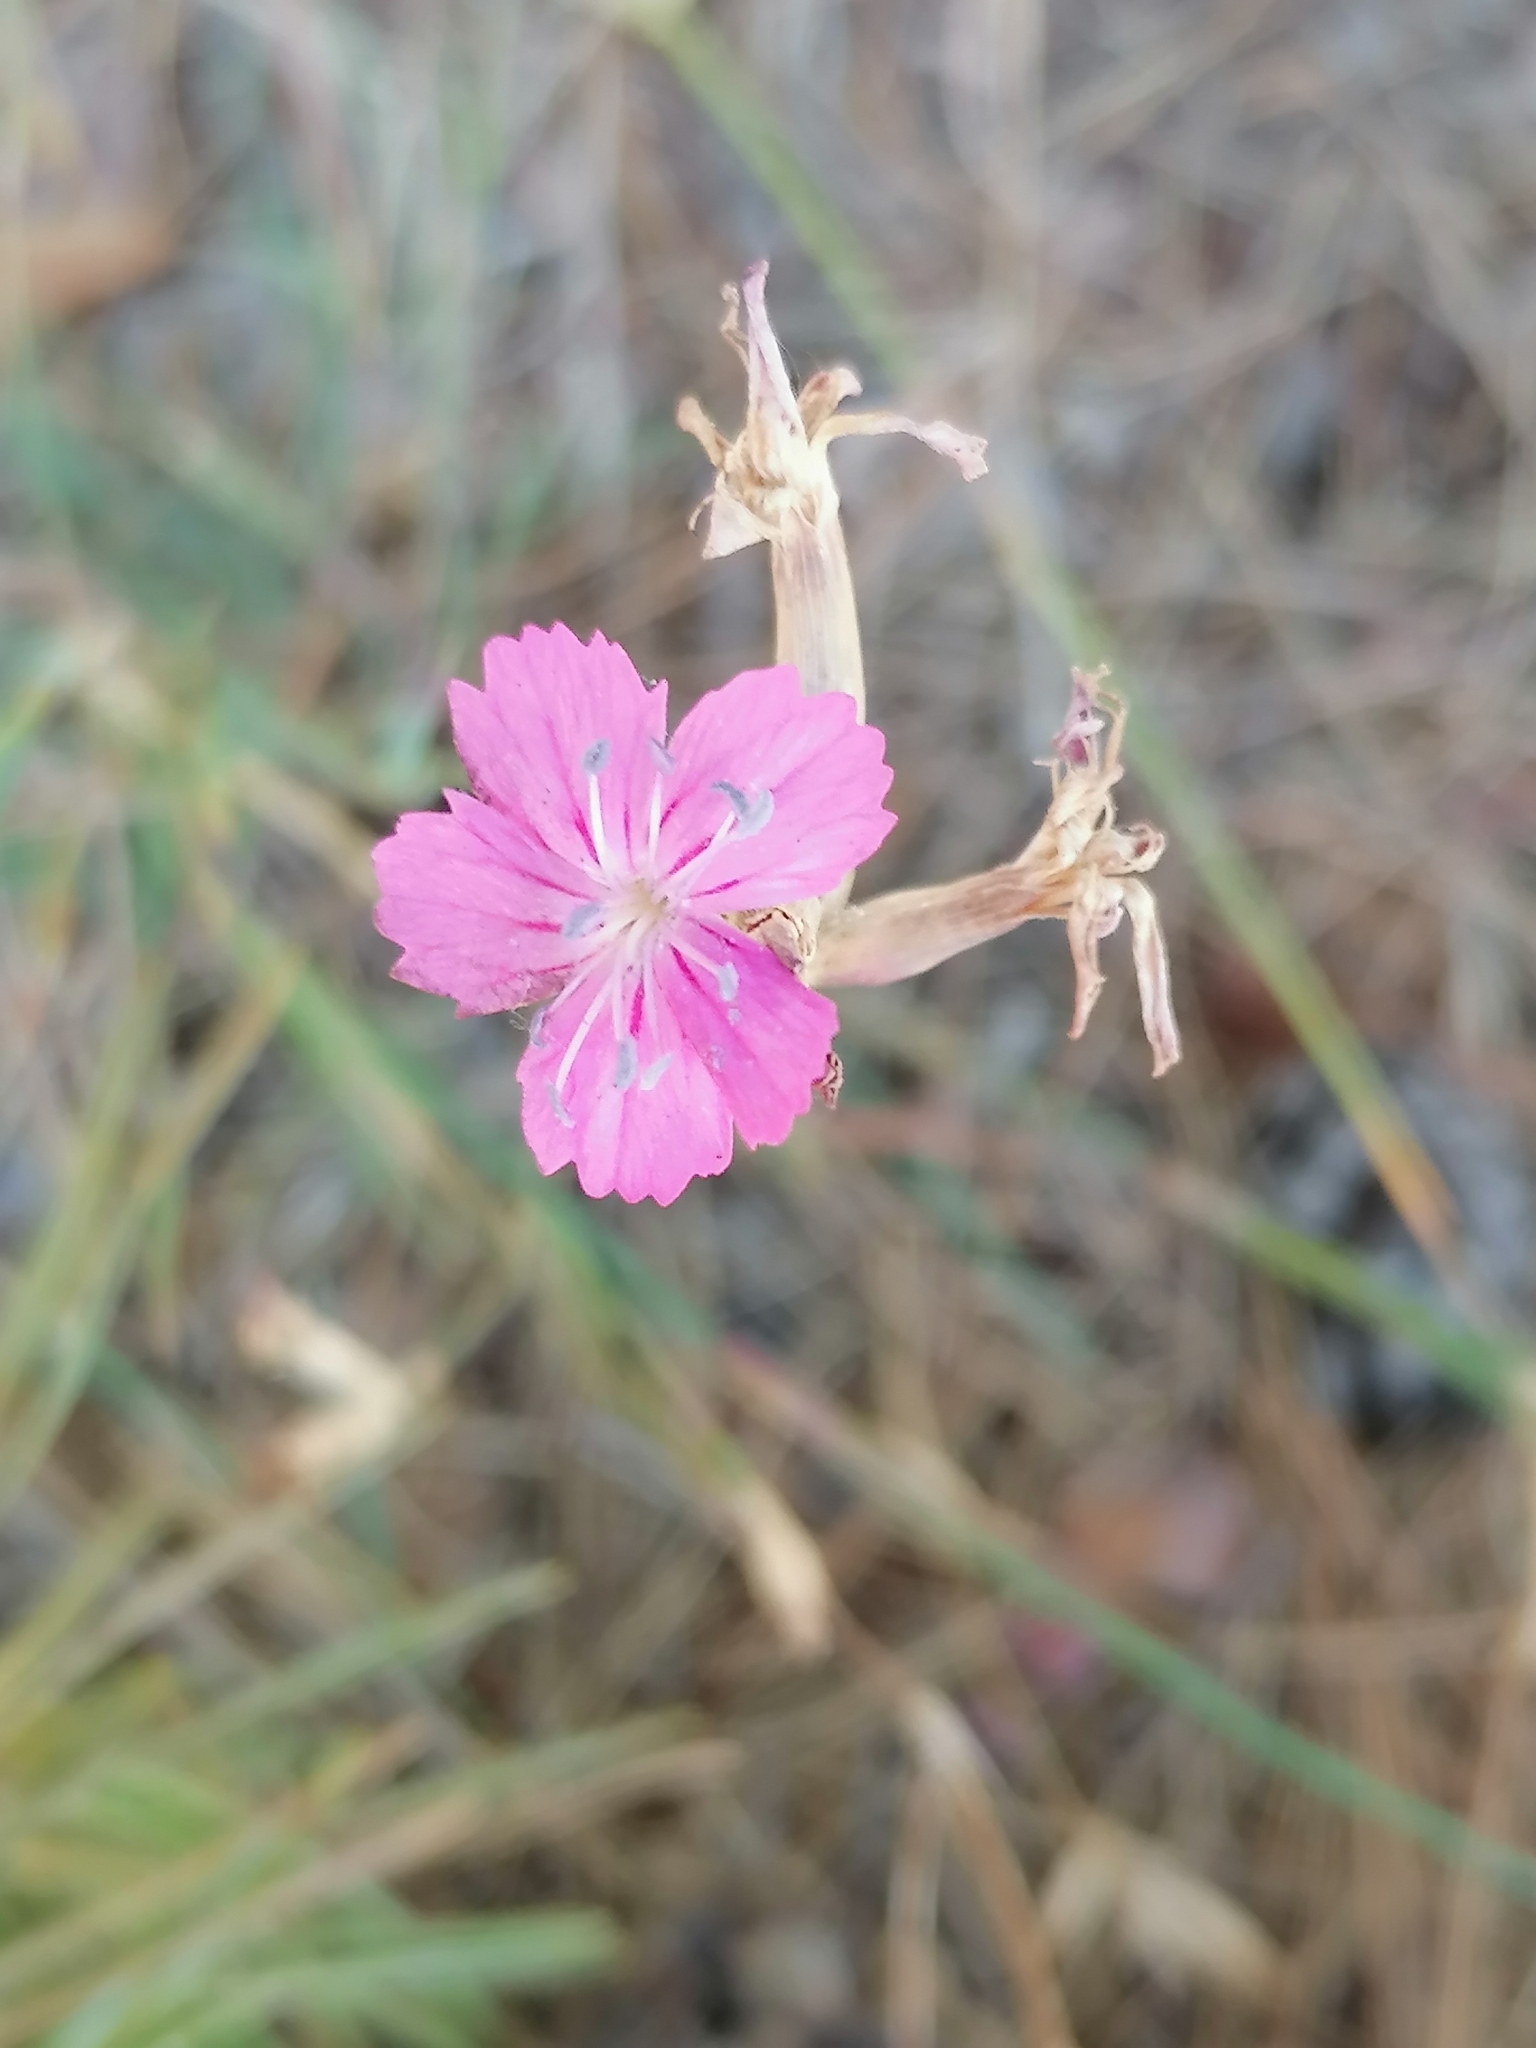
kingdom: Plantae
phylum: Tracheophyta
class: Magnoliopsida
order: Caryophyllales
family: Caryophyllaceae
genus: Dianthus
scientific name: Dianthus borbasii
